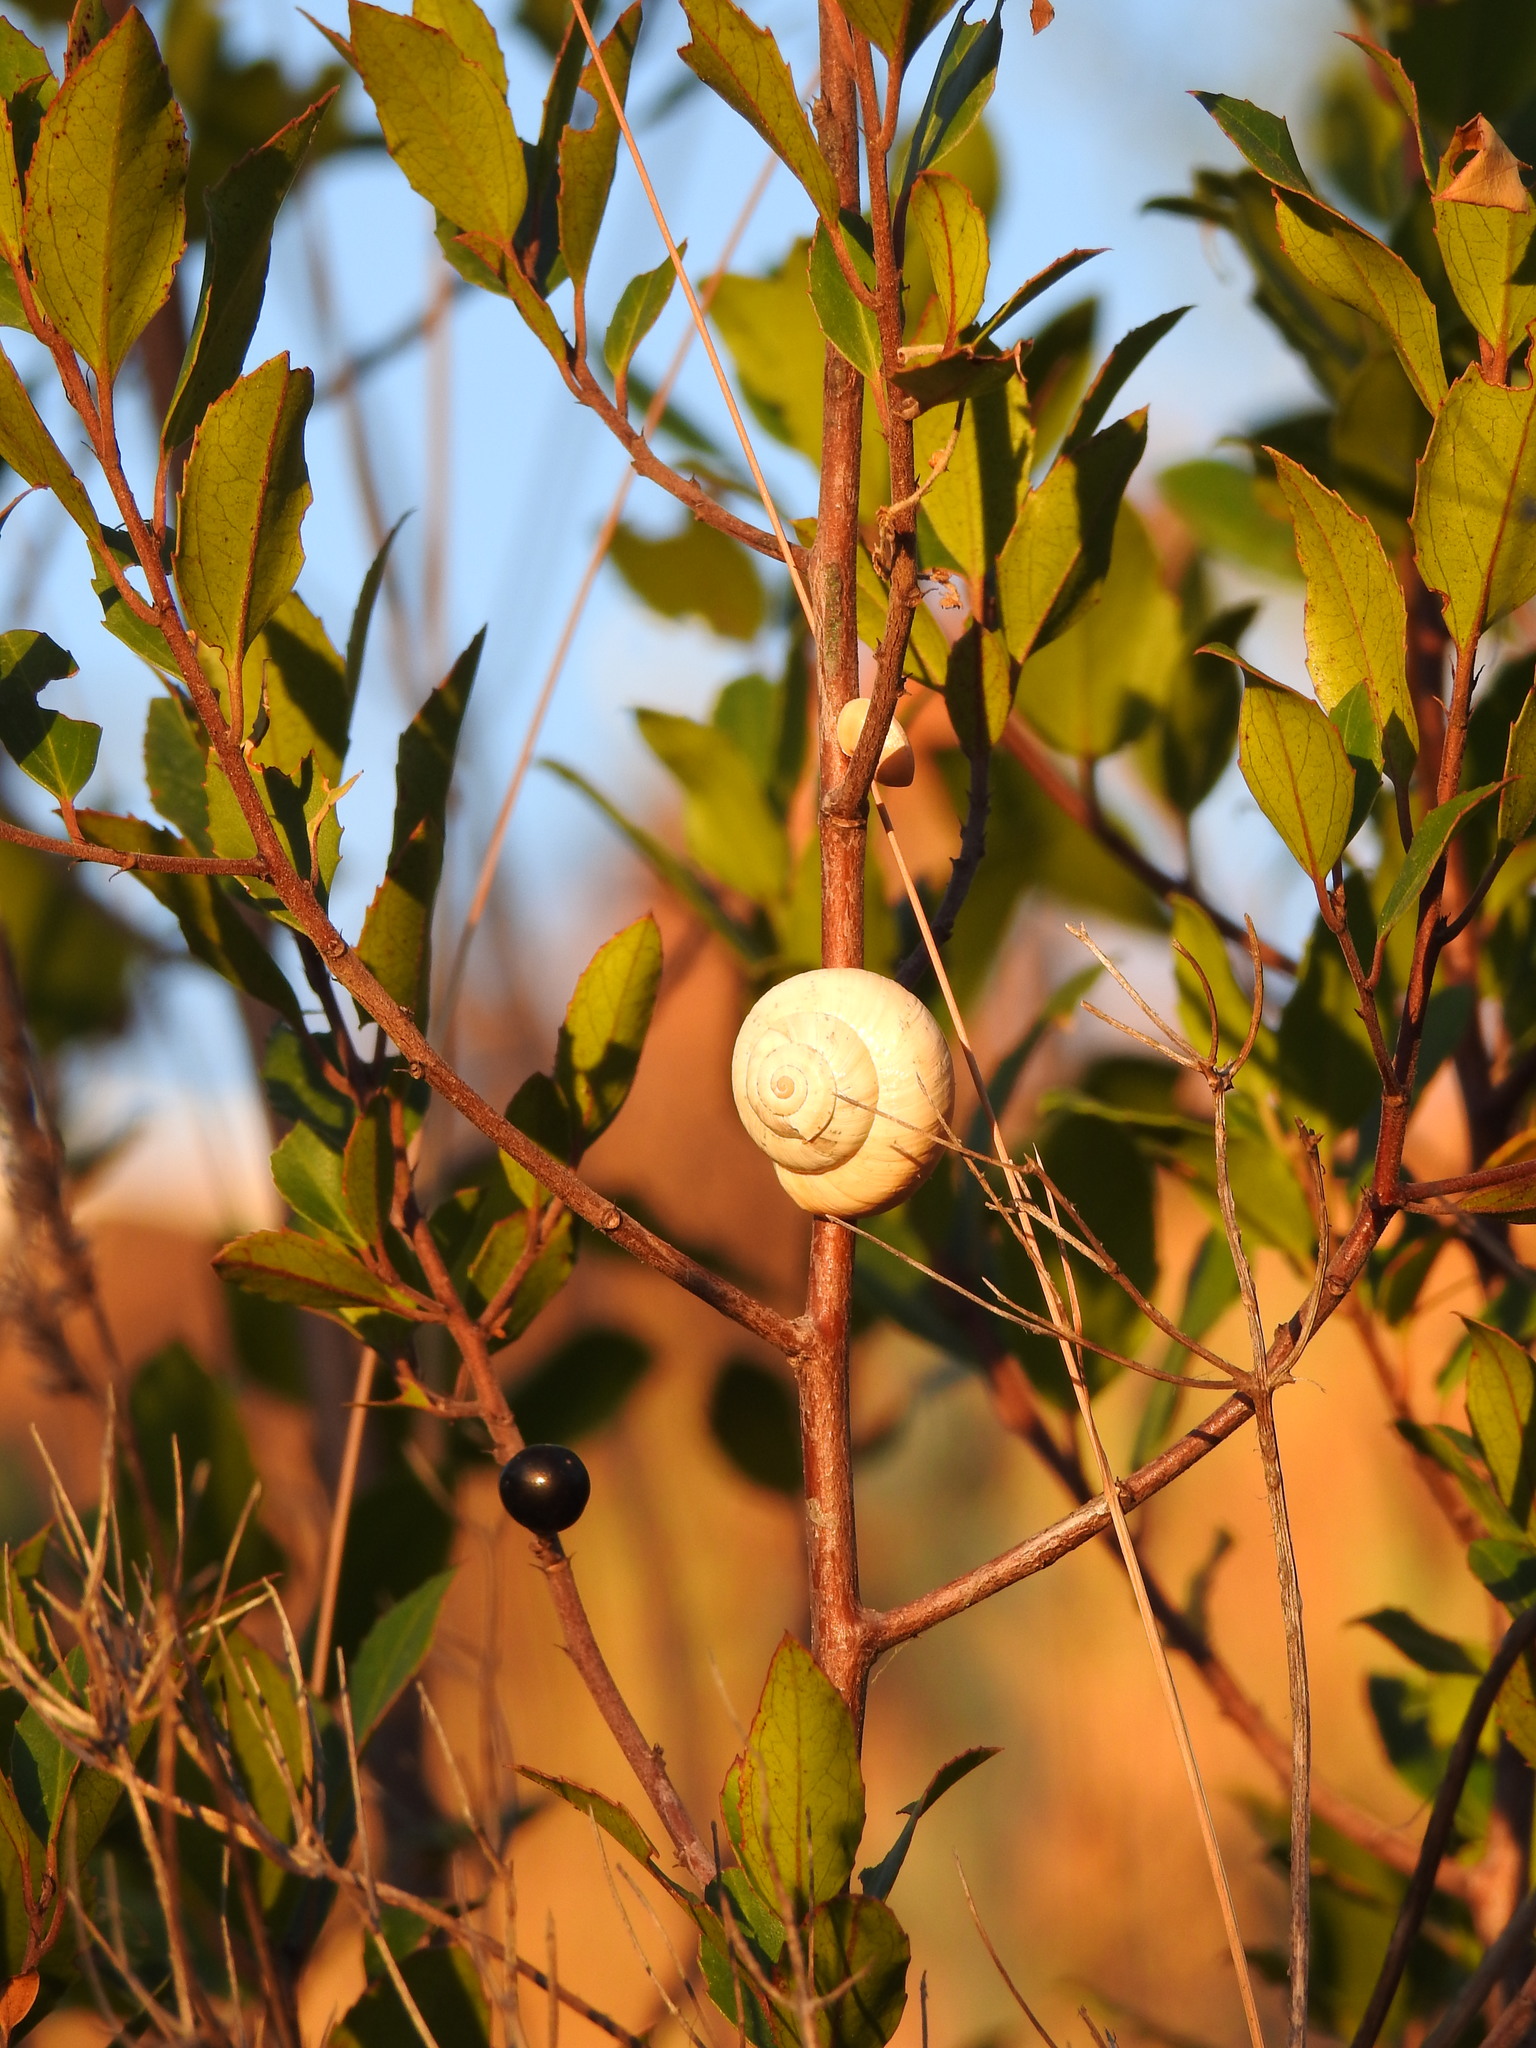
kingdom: Animalia
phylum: Mollusca
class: Gastropoda
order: Stylommatophora
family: Helicidae
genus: Theba
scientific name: Theba pisana
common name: White snail
